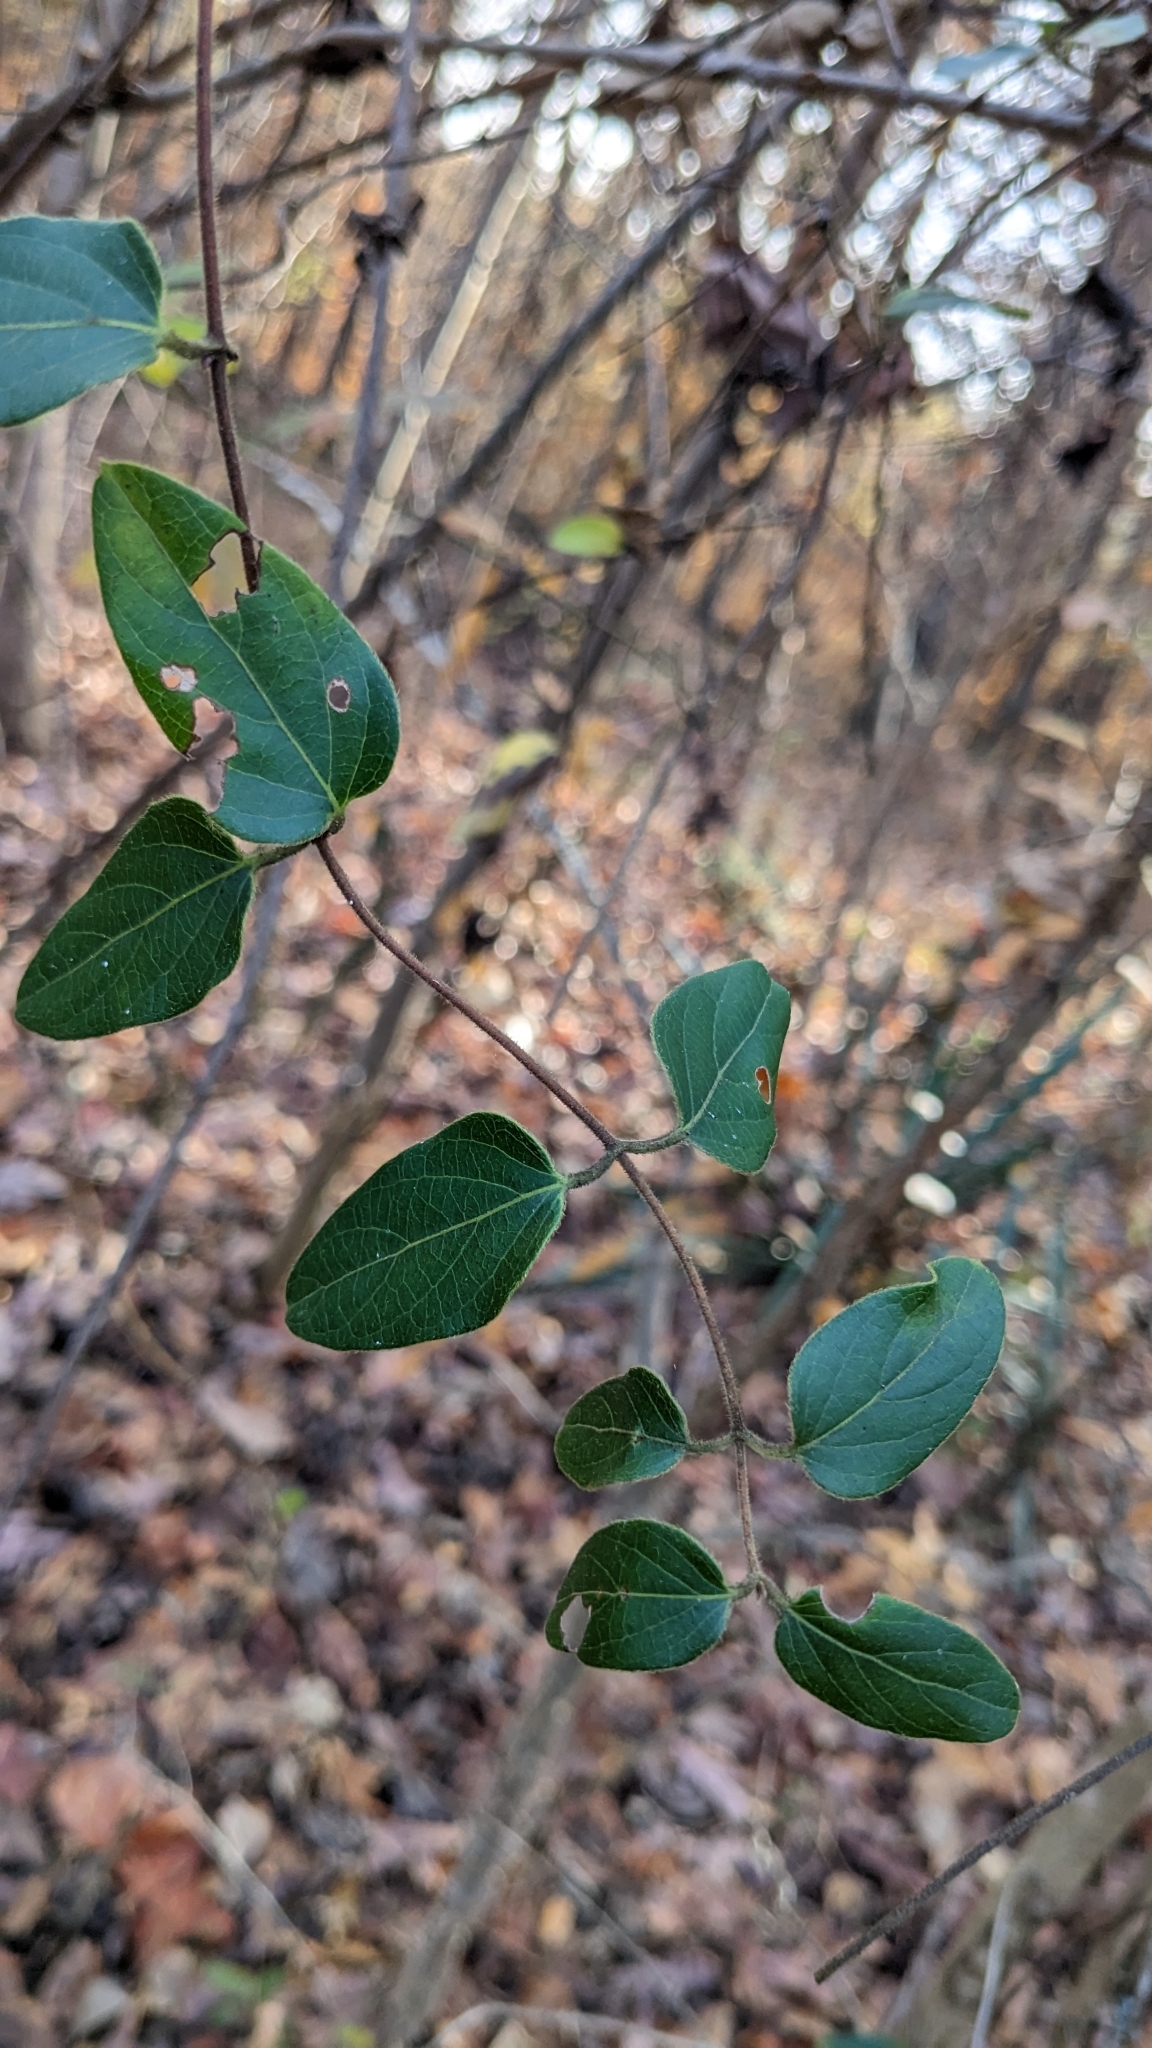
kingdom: Plantae
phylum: Tracheophyta
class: Magnoliopsida
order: Dipsacales
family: Caprifoliaceae
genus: Lonicera
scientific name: Lonicera japonica
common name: Japanese honeysuckle
